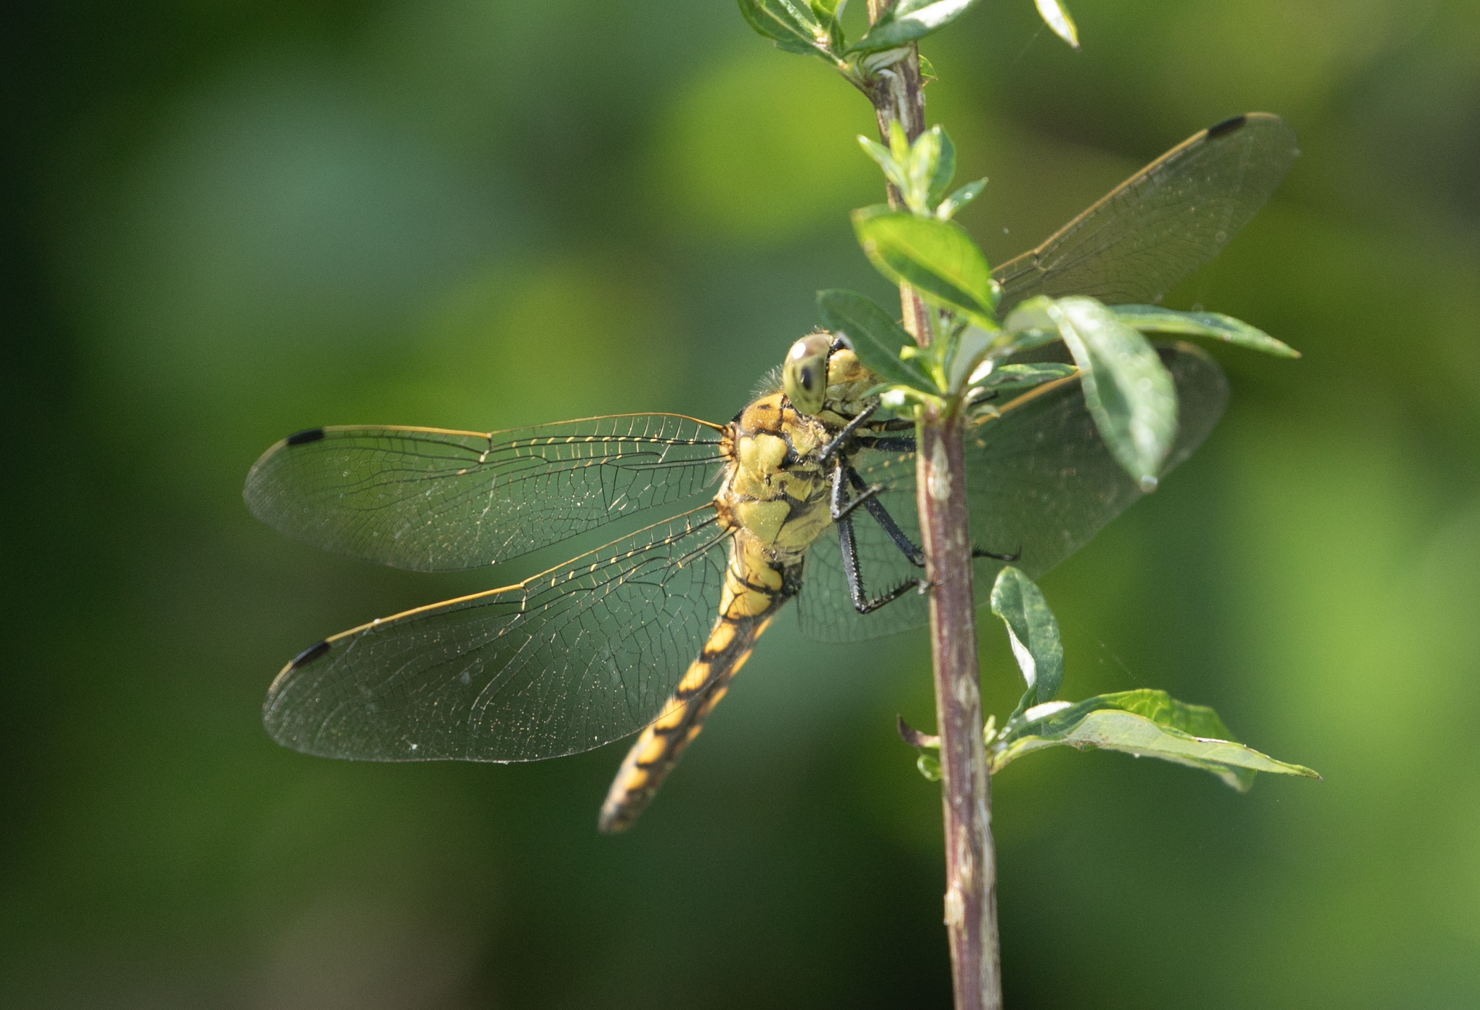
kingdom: Animalia
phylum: Arthropoda
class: Insecta
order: Odonata
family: Libellulidae
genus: Orthetrum
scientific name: Orthetrum cancellatum
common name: Black-tailed skimmer
